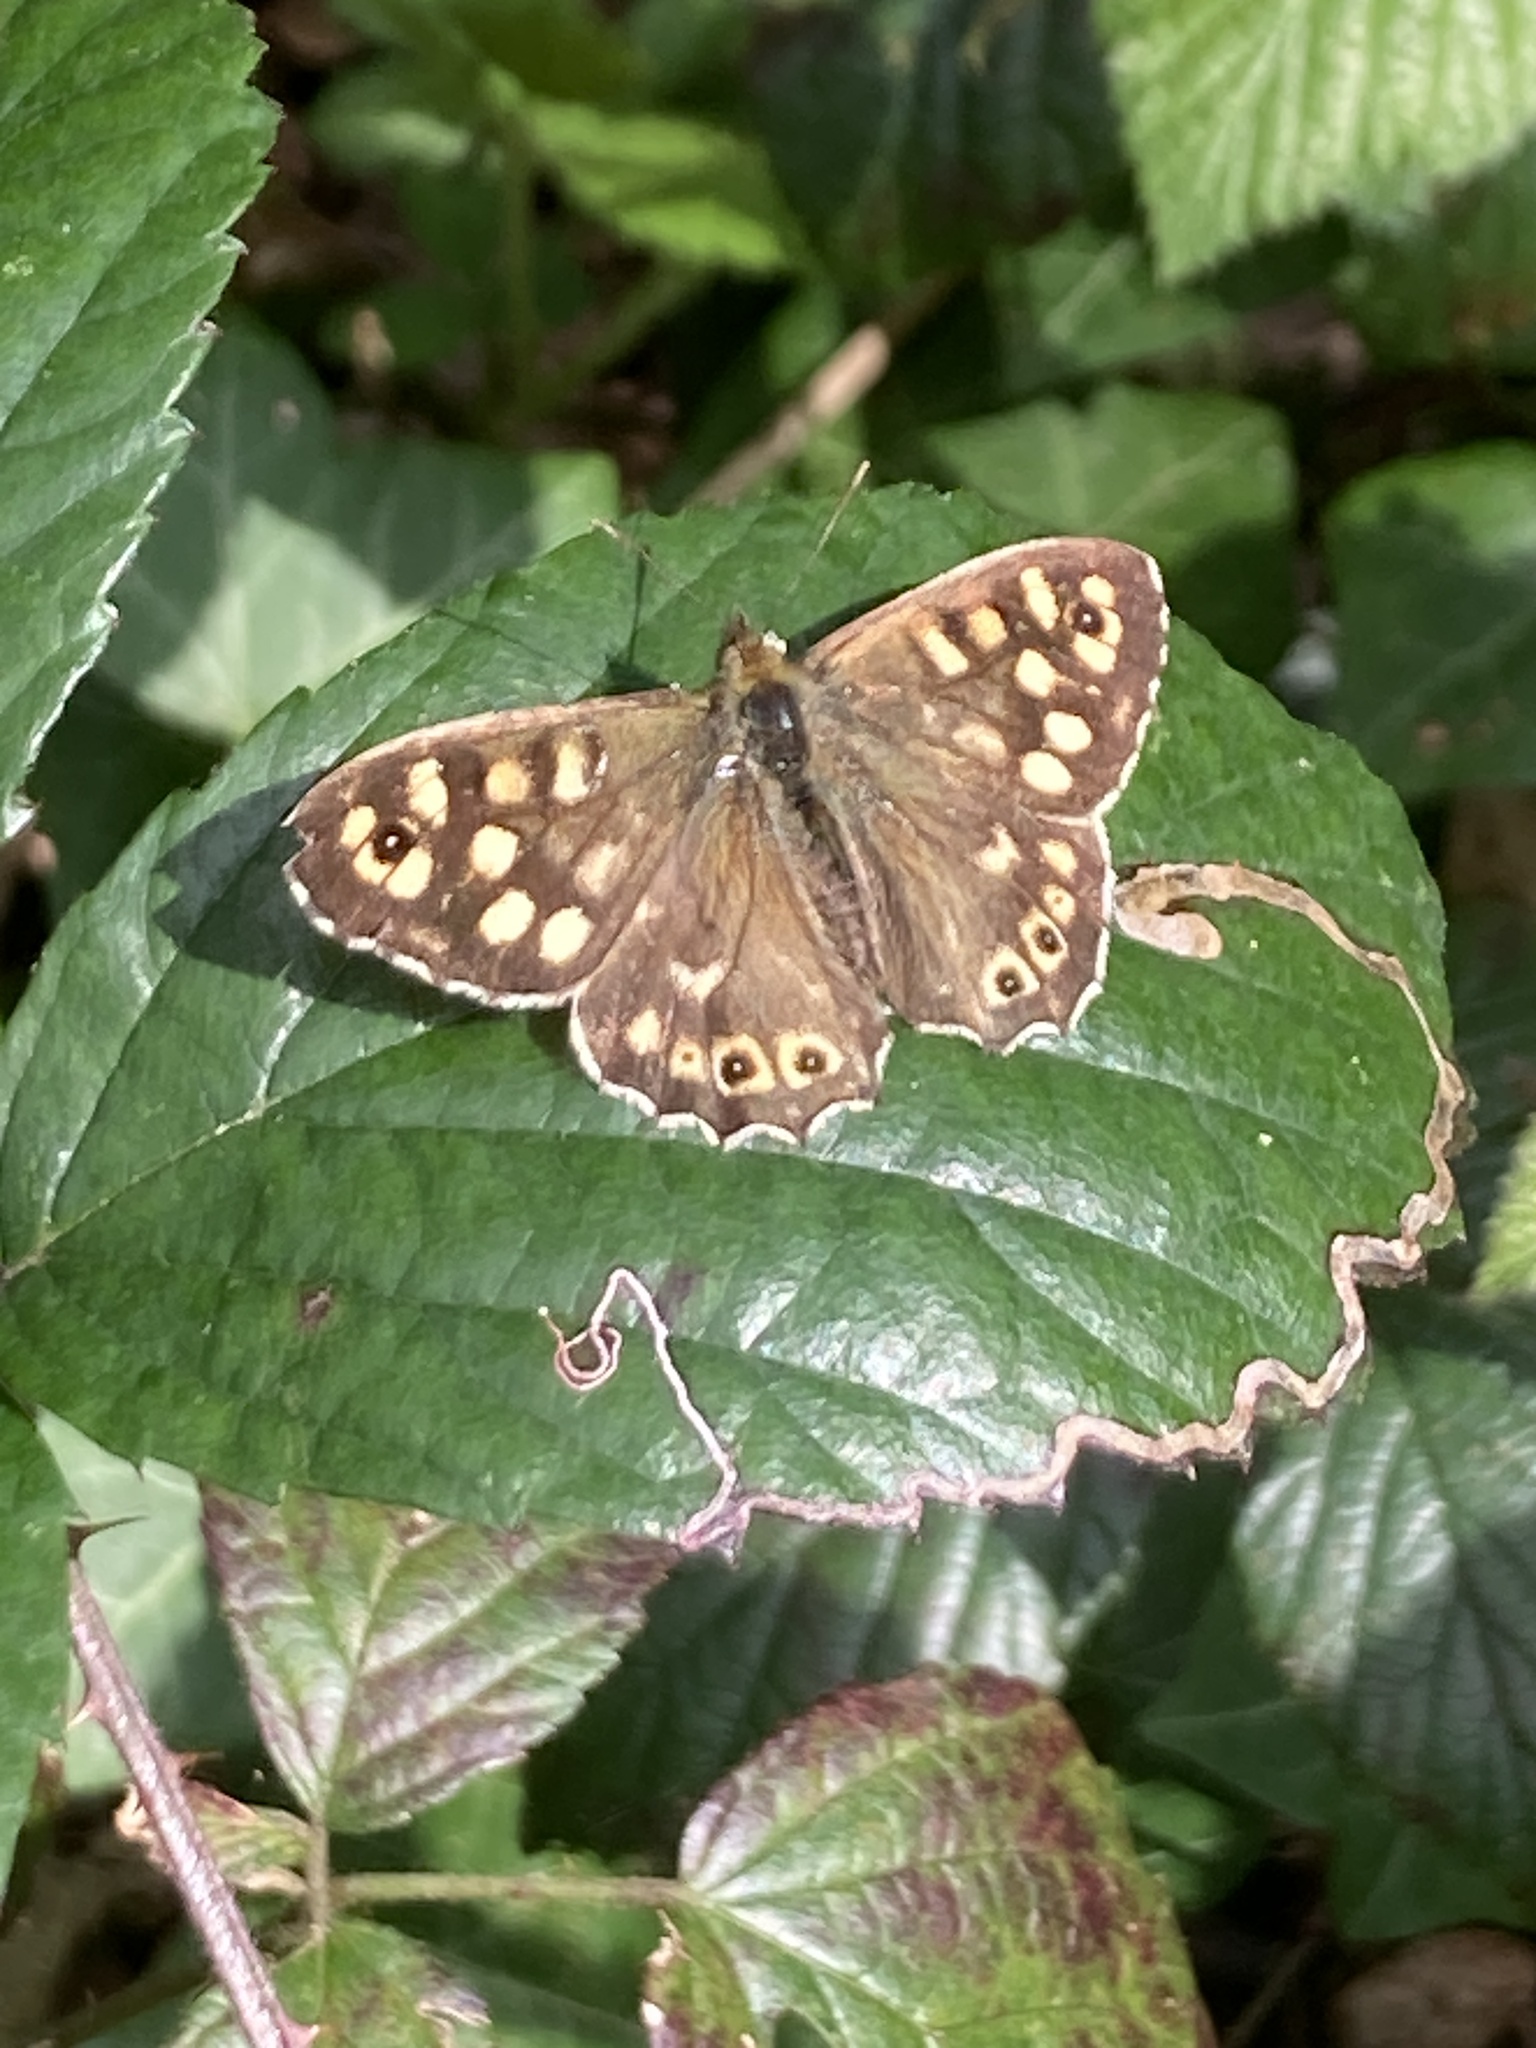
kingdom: Animalia
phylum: Arthropoda
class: Insecta
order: Lepidoptera
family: Nymphalidae
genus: Pararge
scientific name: Pararge aegeria
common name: Speckled wood
